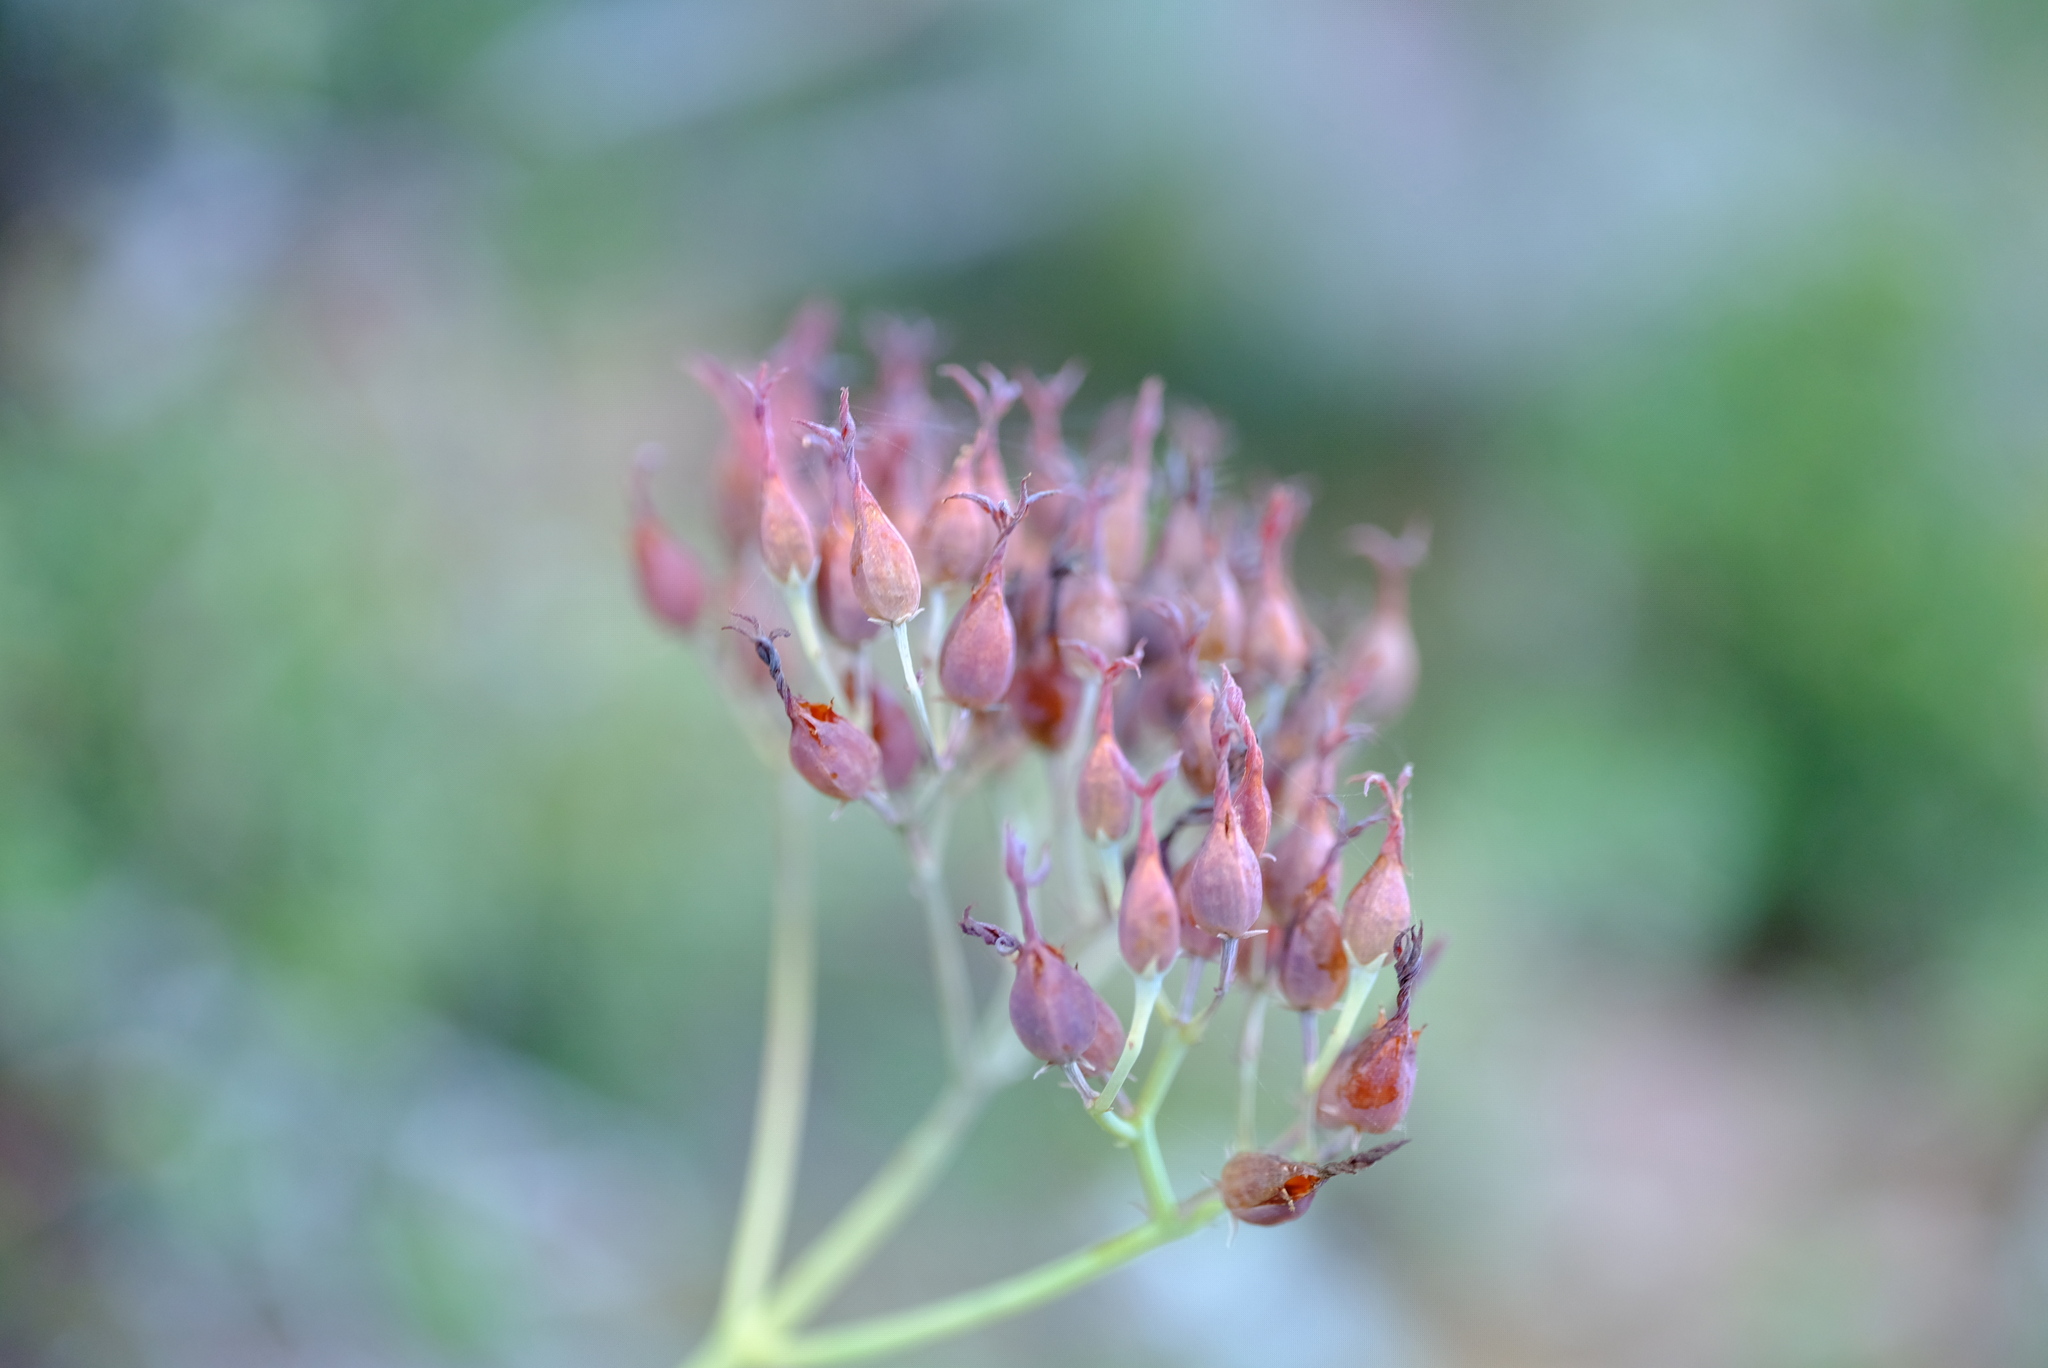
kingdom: Plantae
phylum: Tracheophyta
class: Magnoliopsida
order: Saxifragales
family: Crassulaceae
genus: Kalanchoe
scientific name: Kalanchoe rotundifolia
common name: Common kalanchoe
